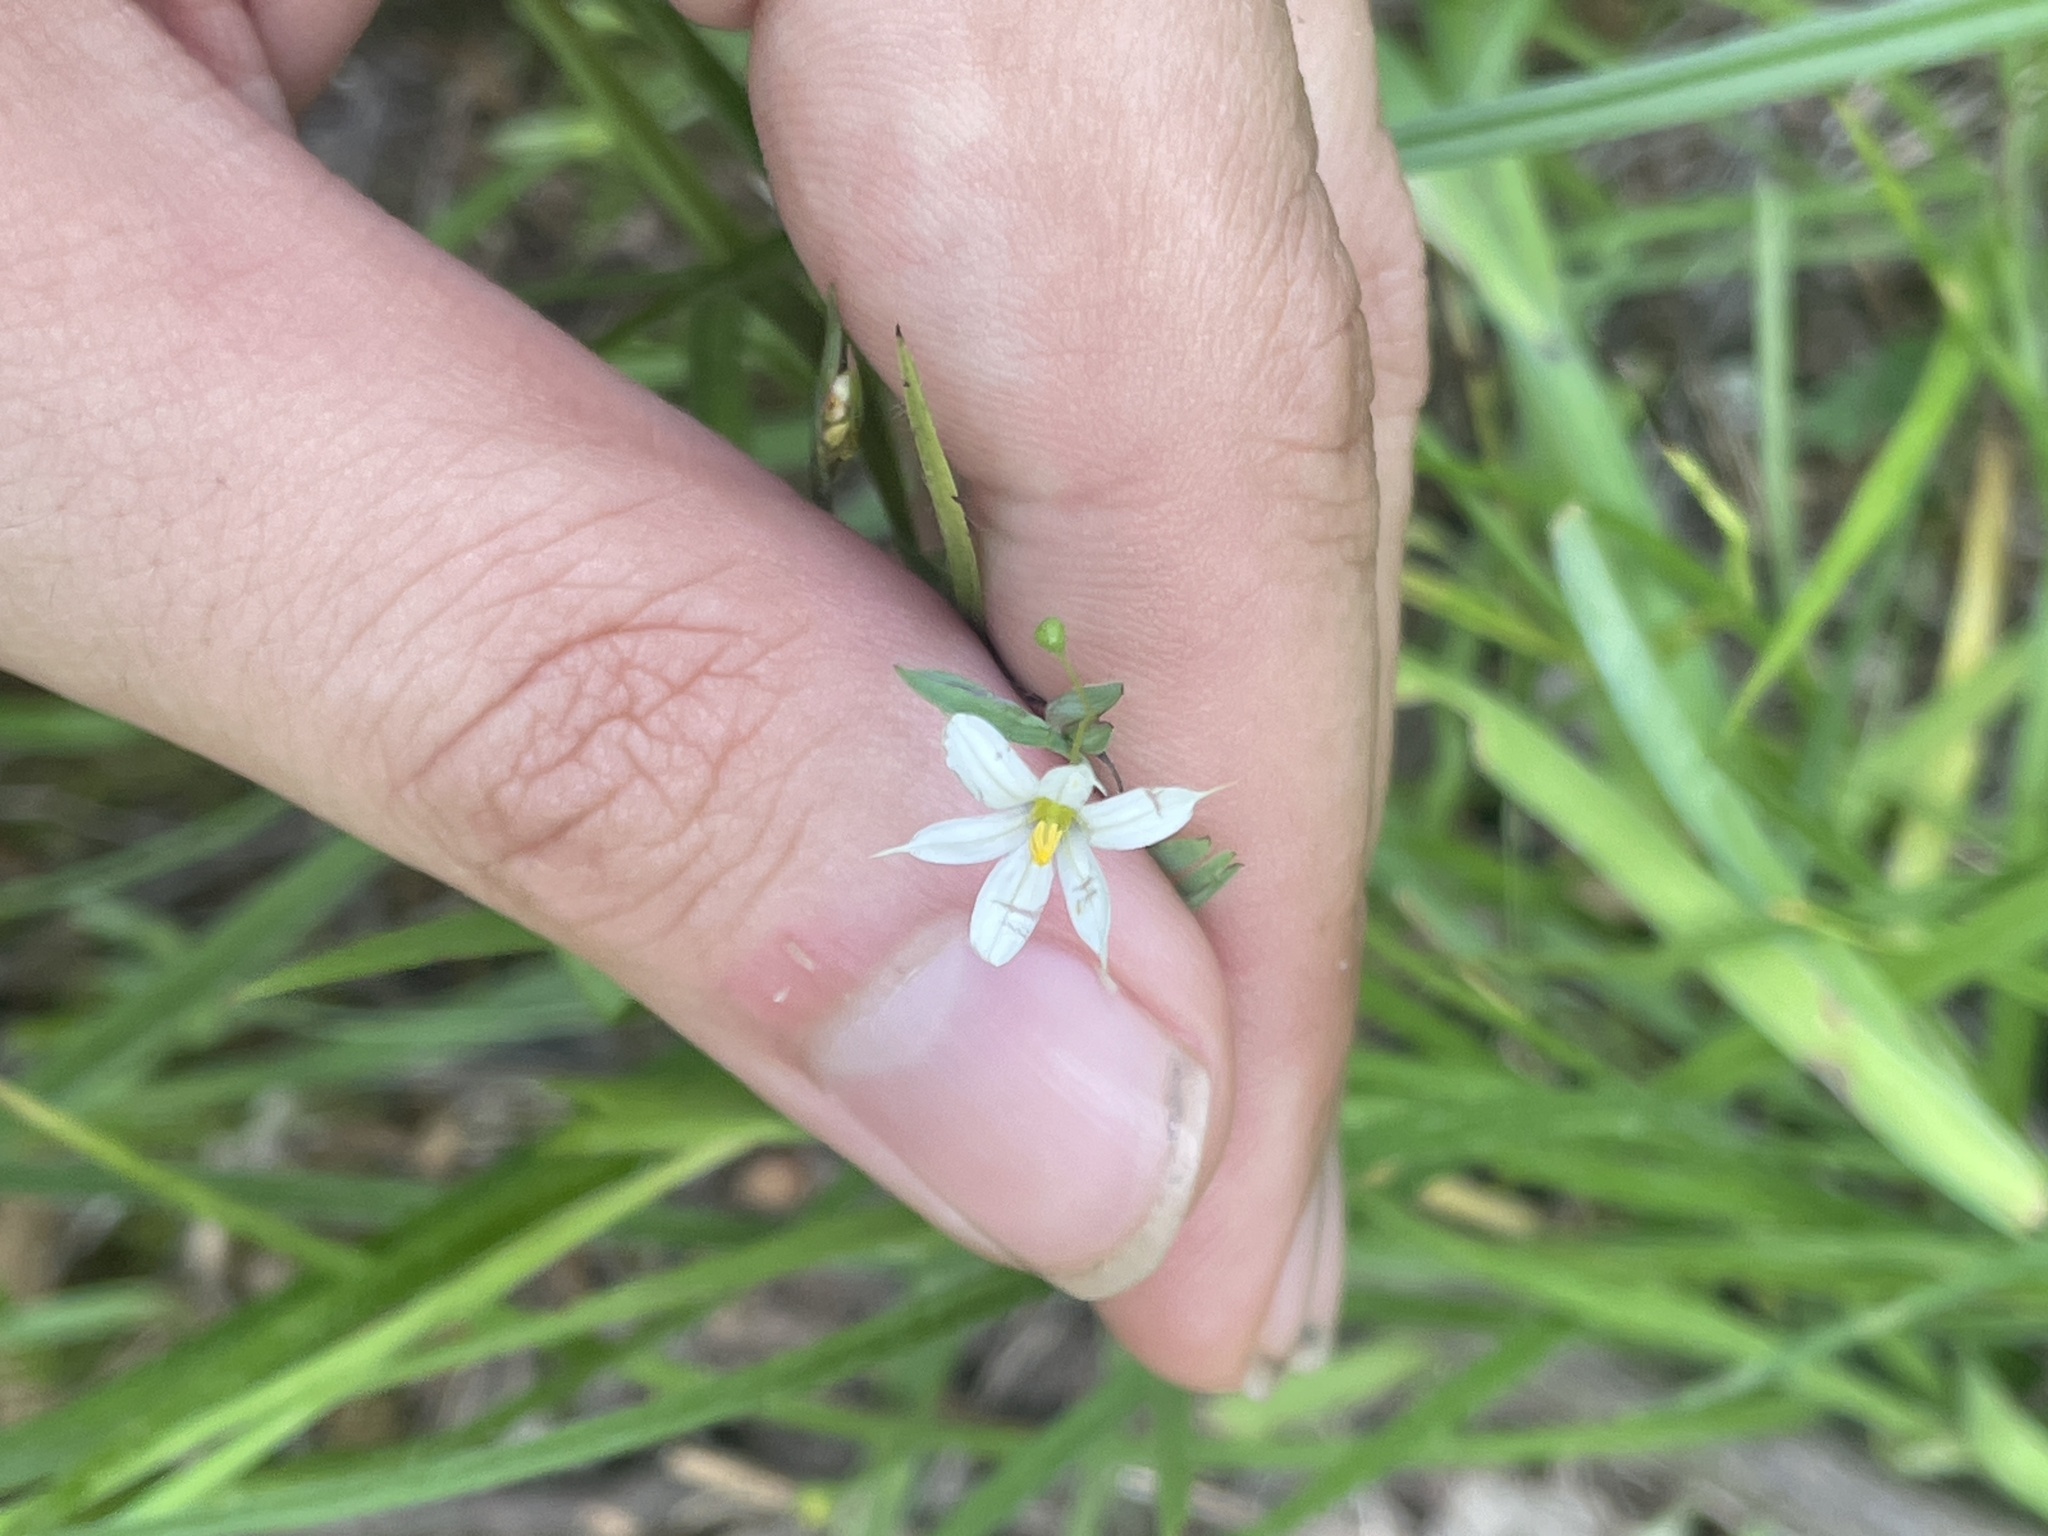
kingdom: Plantae
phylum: Tracheophyta
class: Liliopsida
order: Asparagales
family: Iridaceae
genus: Sisyrinchium
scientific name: Sisyrinchium dichotomum
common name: White irisette
